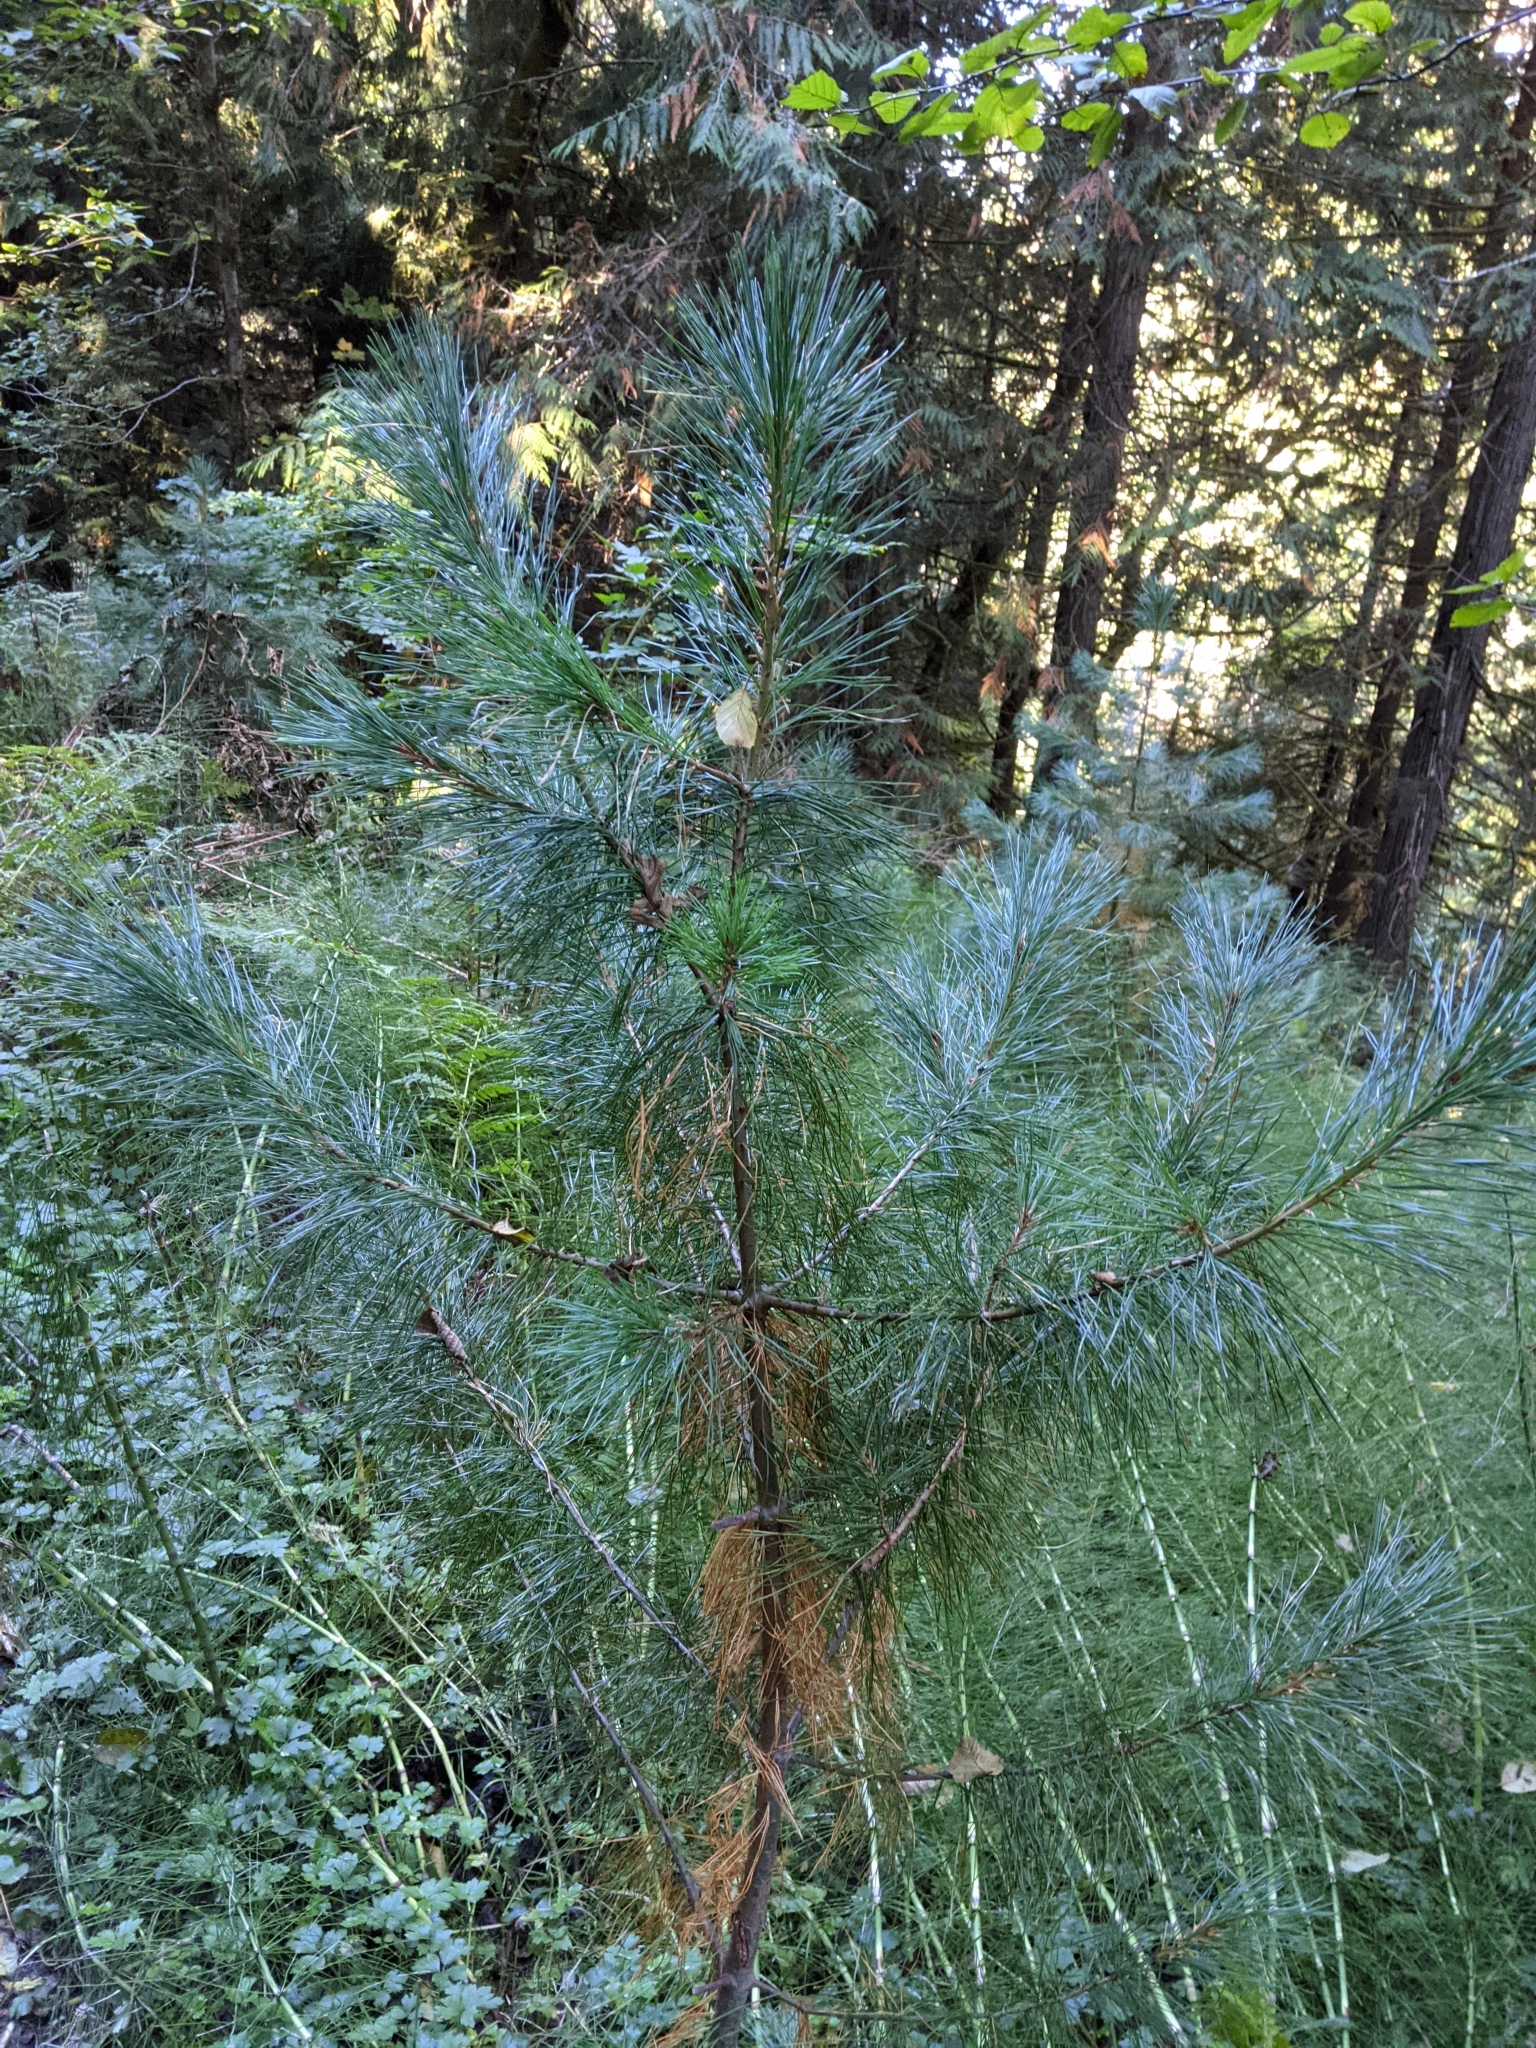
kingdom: Plantae
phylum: Tracheophyta
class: Pinopsida
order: Pinales
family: Pinaceae
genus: Pinus
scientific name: Pinus monticola
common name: Western white pine
